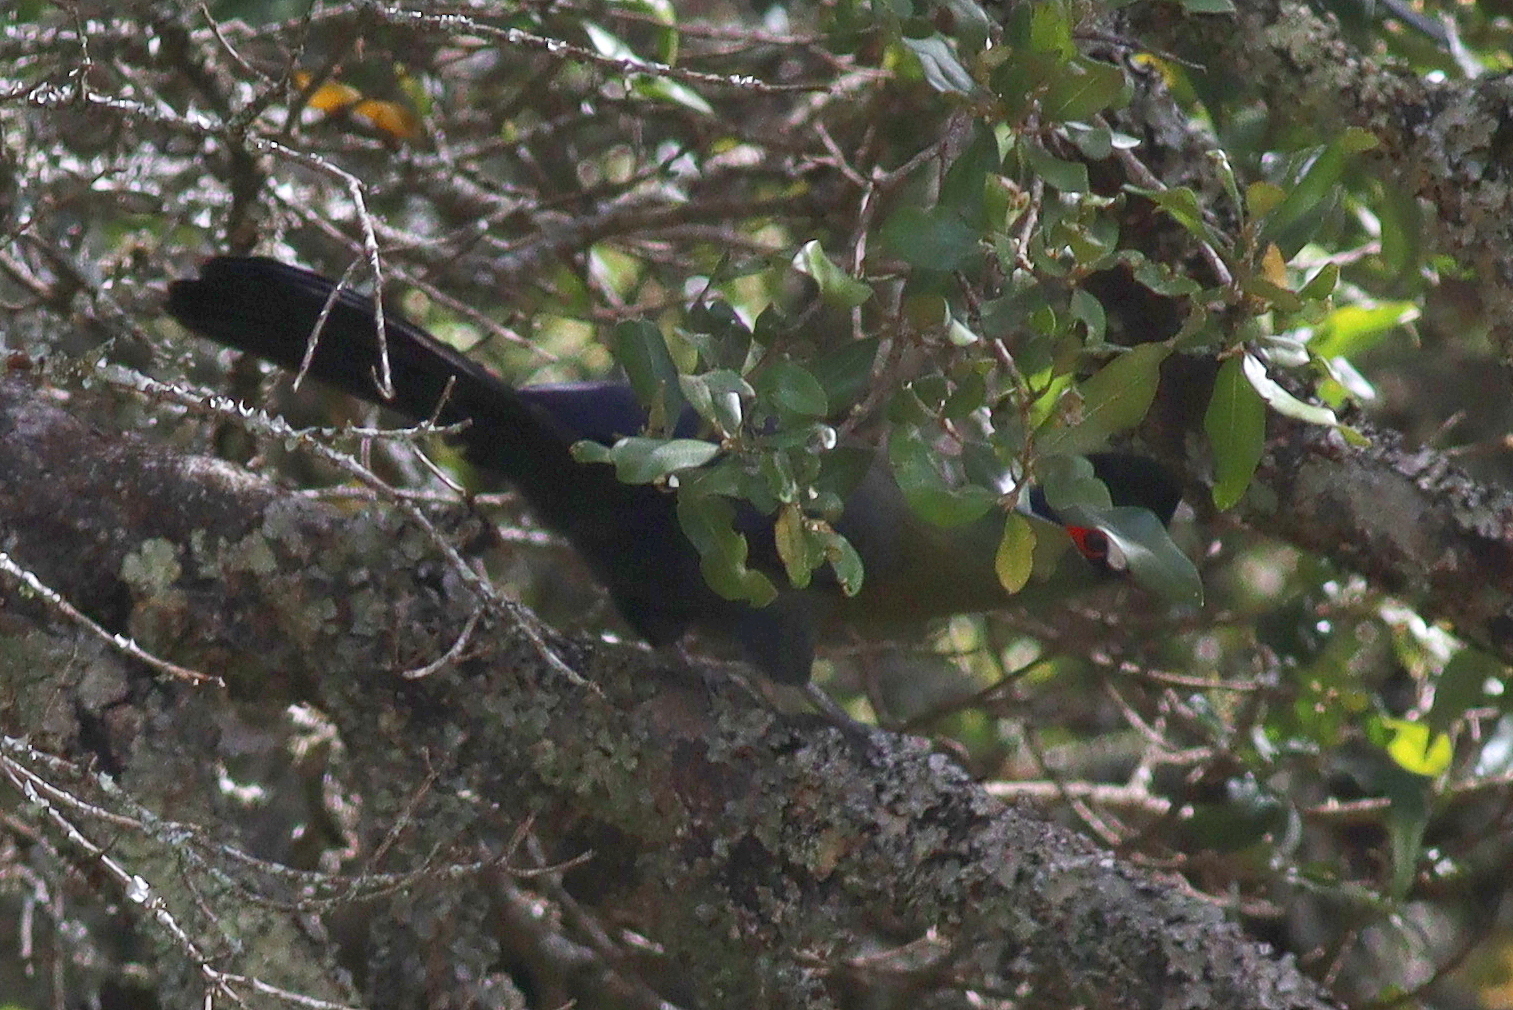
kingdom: Animalia
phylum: Chordata
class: Aves
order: Musophagiformes
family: Musophagidae
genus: Tauraco
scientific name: Tauraco hartlaubi
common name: Hartlaub's turaco
